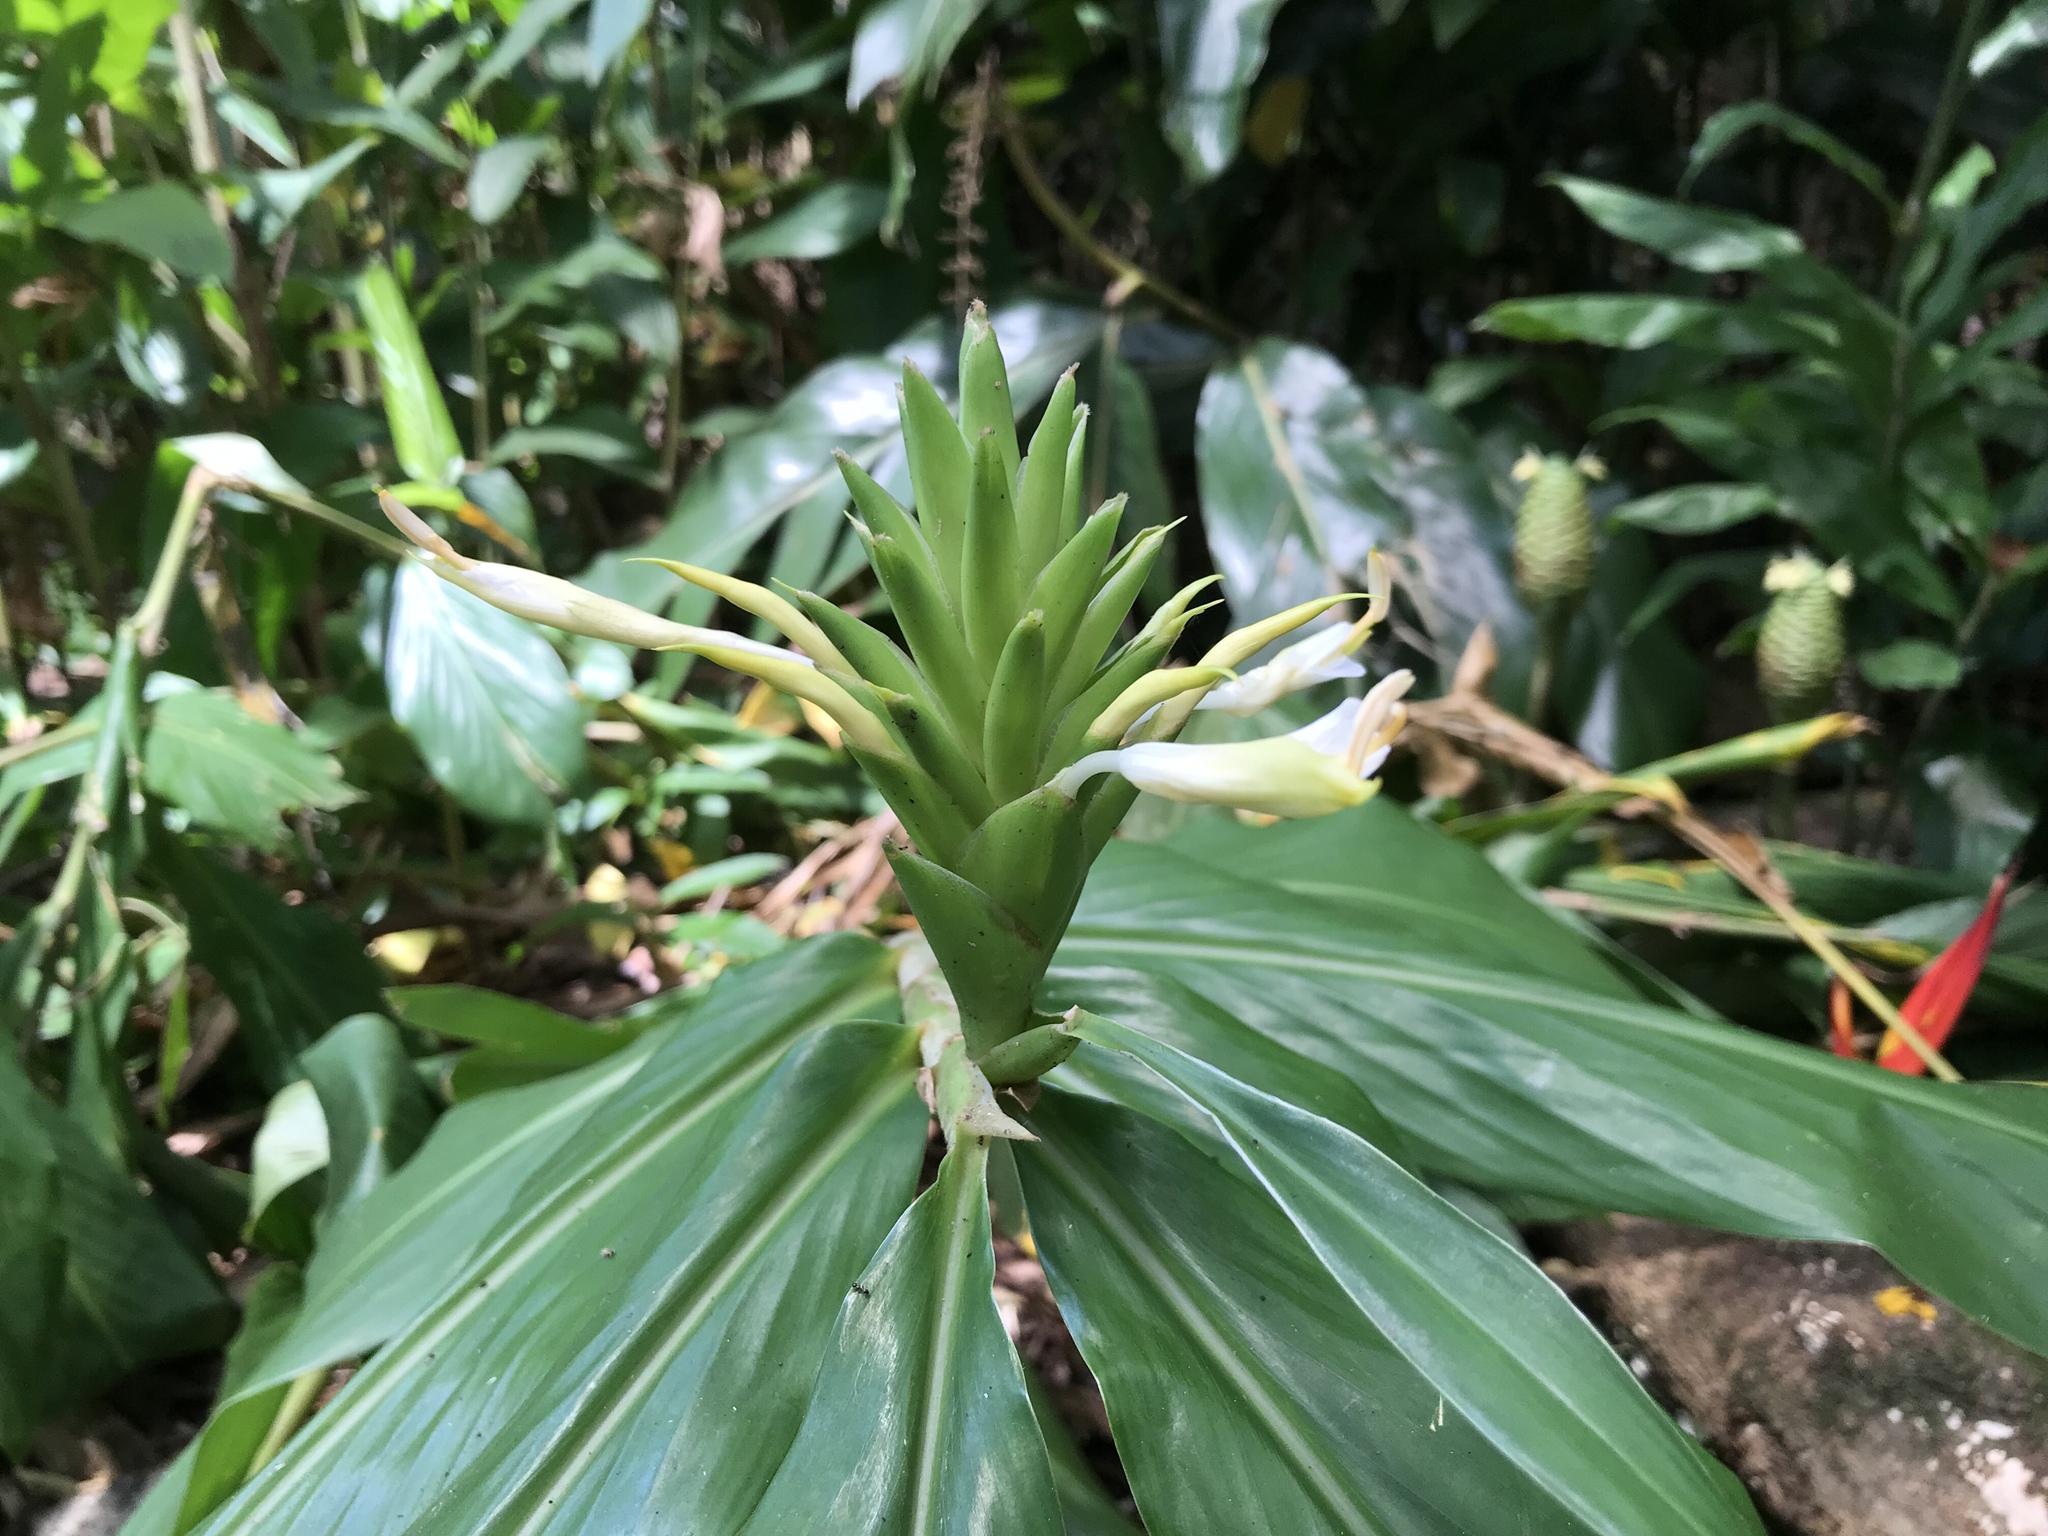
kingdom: Plantae
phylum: Tracheophyta
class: Liliopsida
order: Zingiberales
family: Zingiberaceae
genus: Hedychium
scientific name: Hedychium flavescens
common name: Yellow ginger
